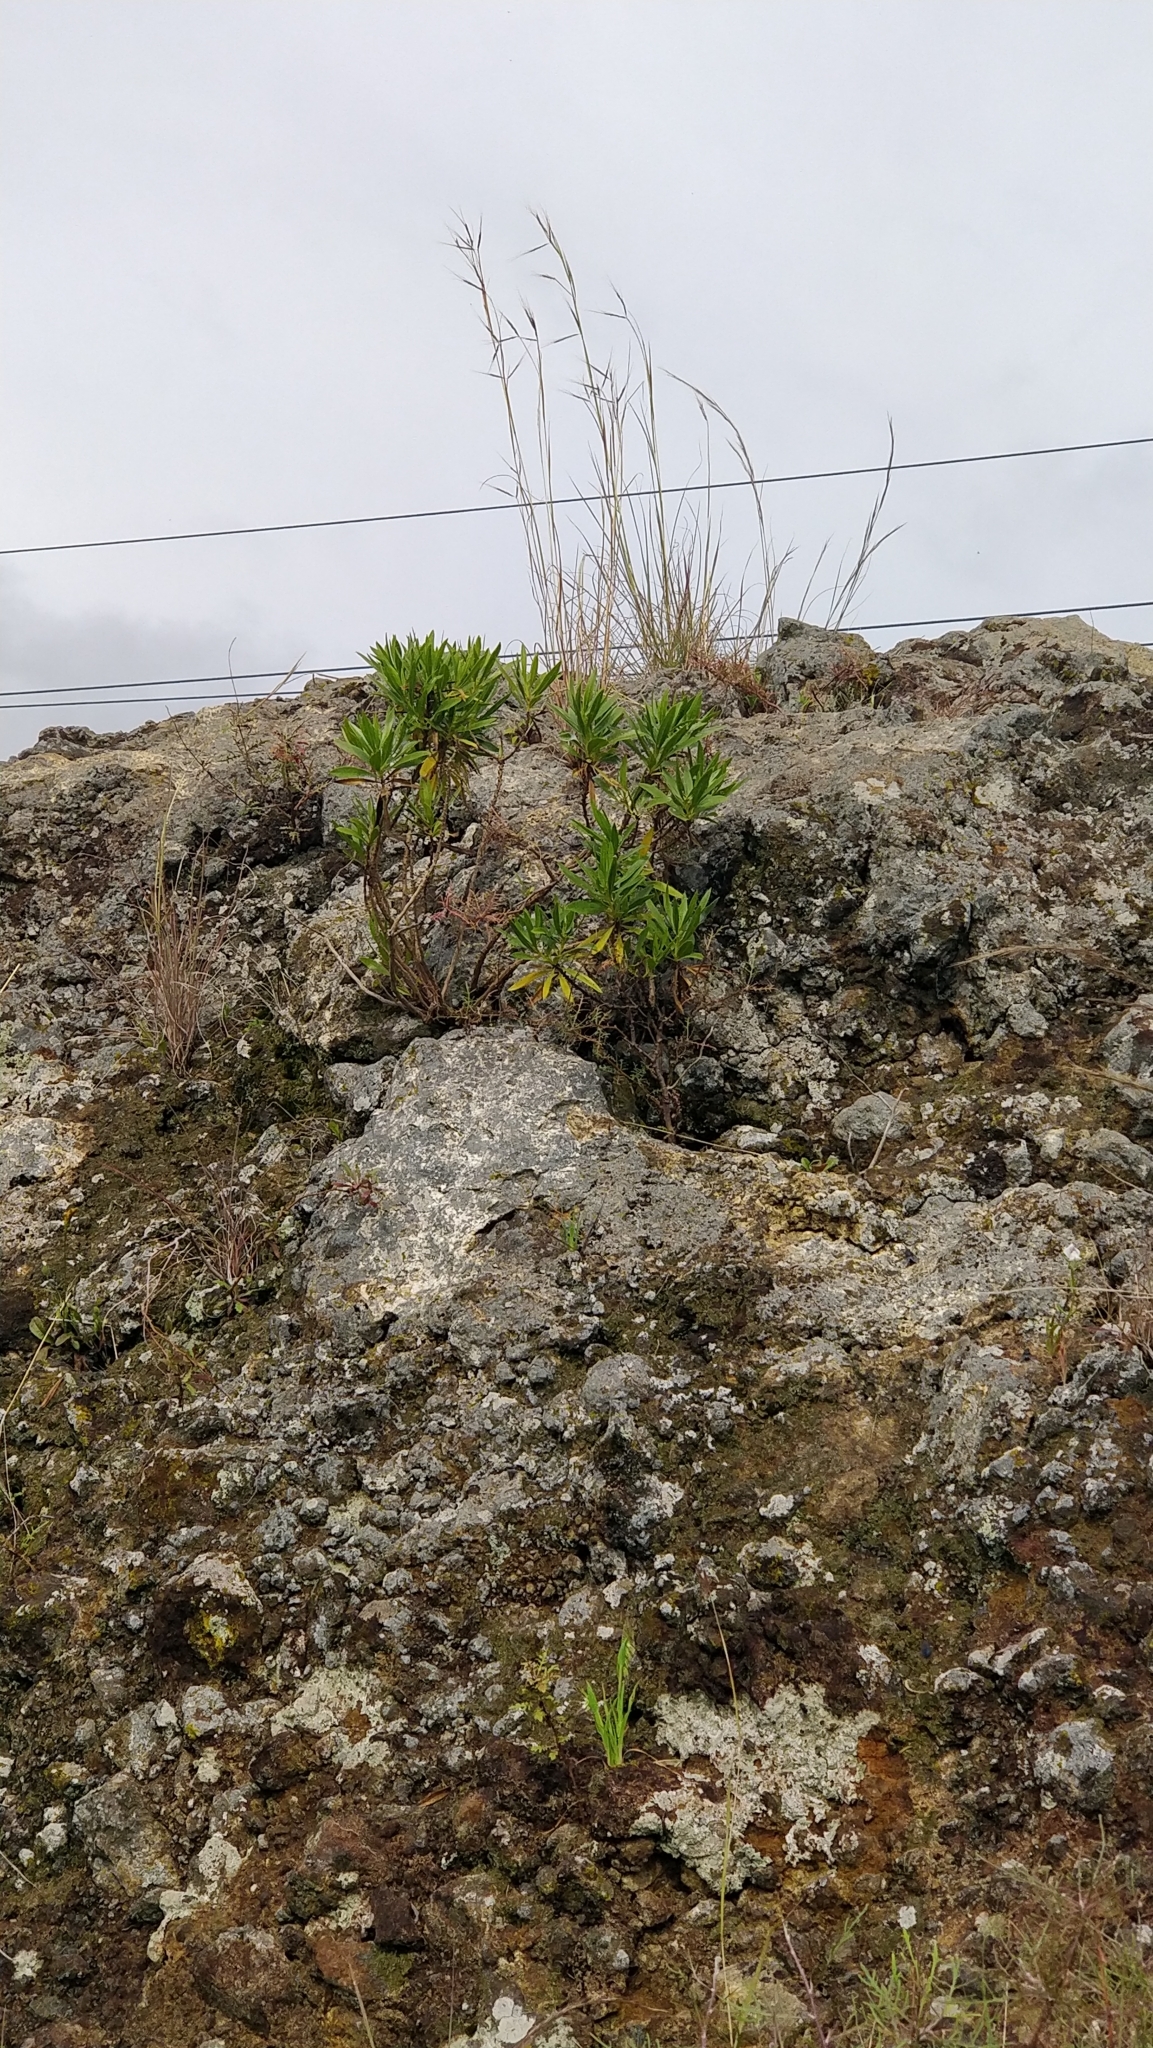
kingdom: Plantae
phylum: Tracheophyta
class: Magnoliopsida
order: Lamiales
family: Plantaginaceae
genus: Globularia
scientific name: Globularia salicina
